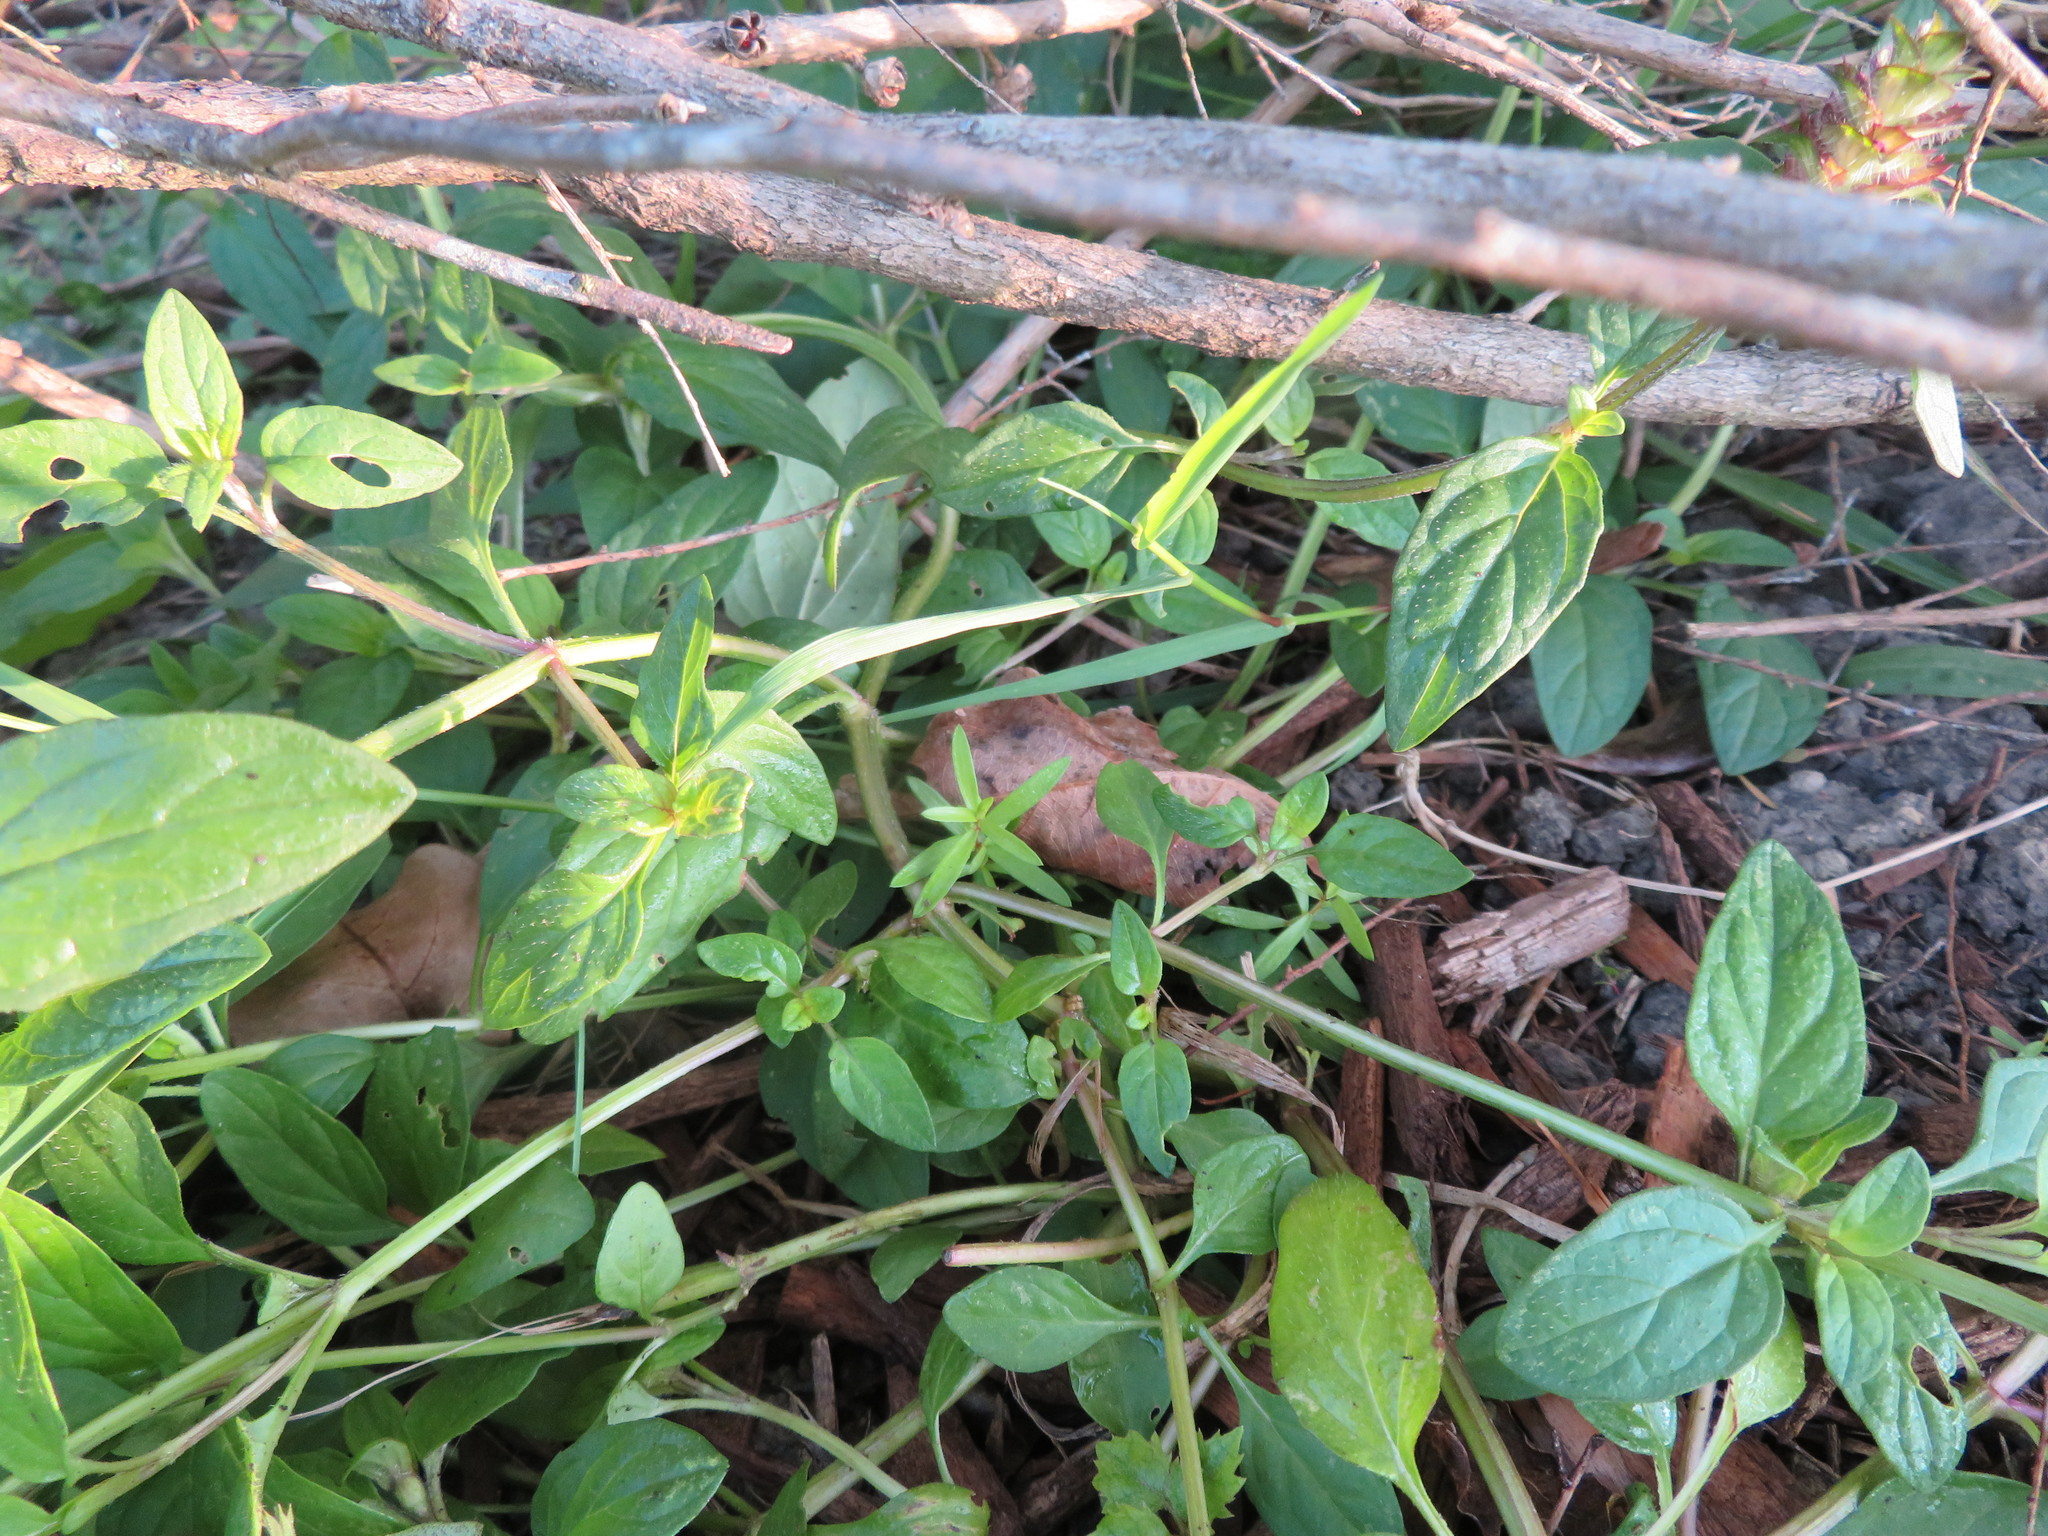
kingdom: Plantae
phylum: Tracheophyta
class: Magnoliopsida
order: Lamiales
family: Lamiaceae
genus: Prunella
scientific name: Prunella vulgaris
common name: Heal-all
